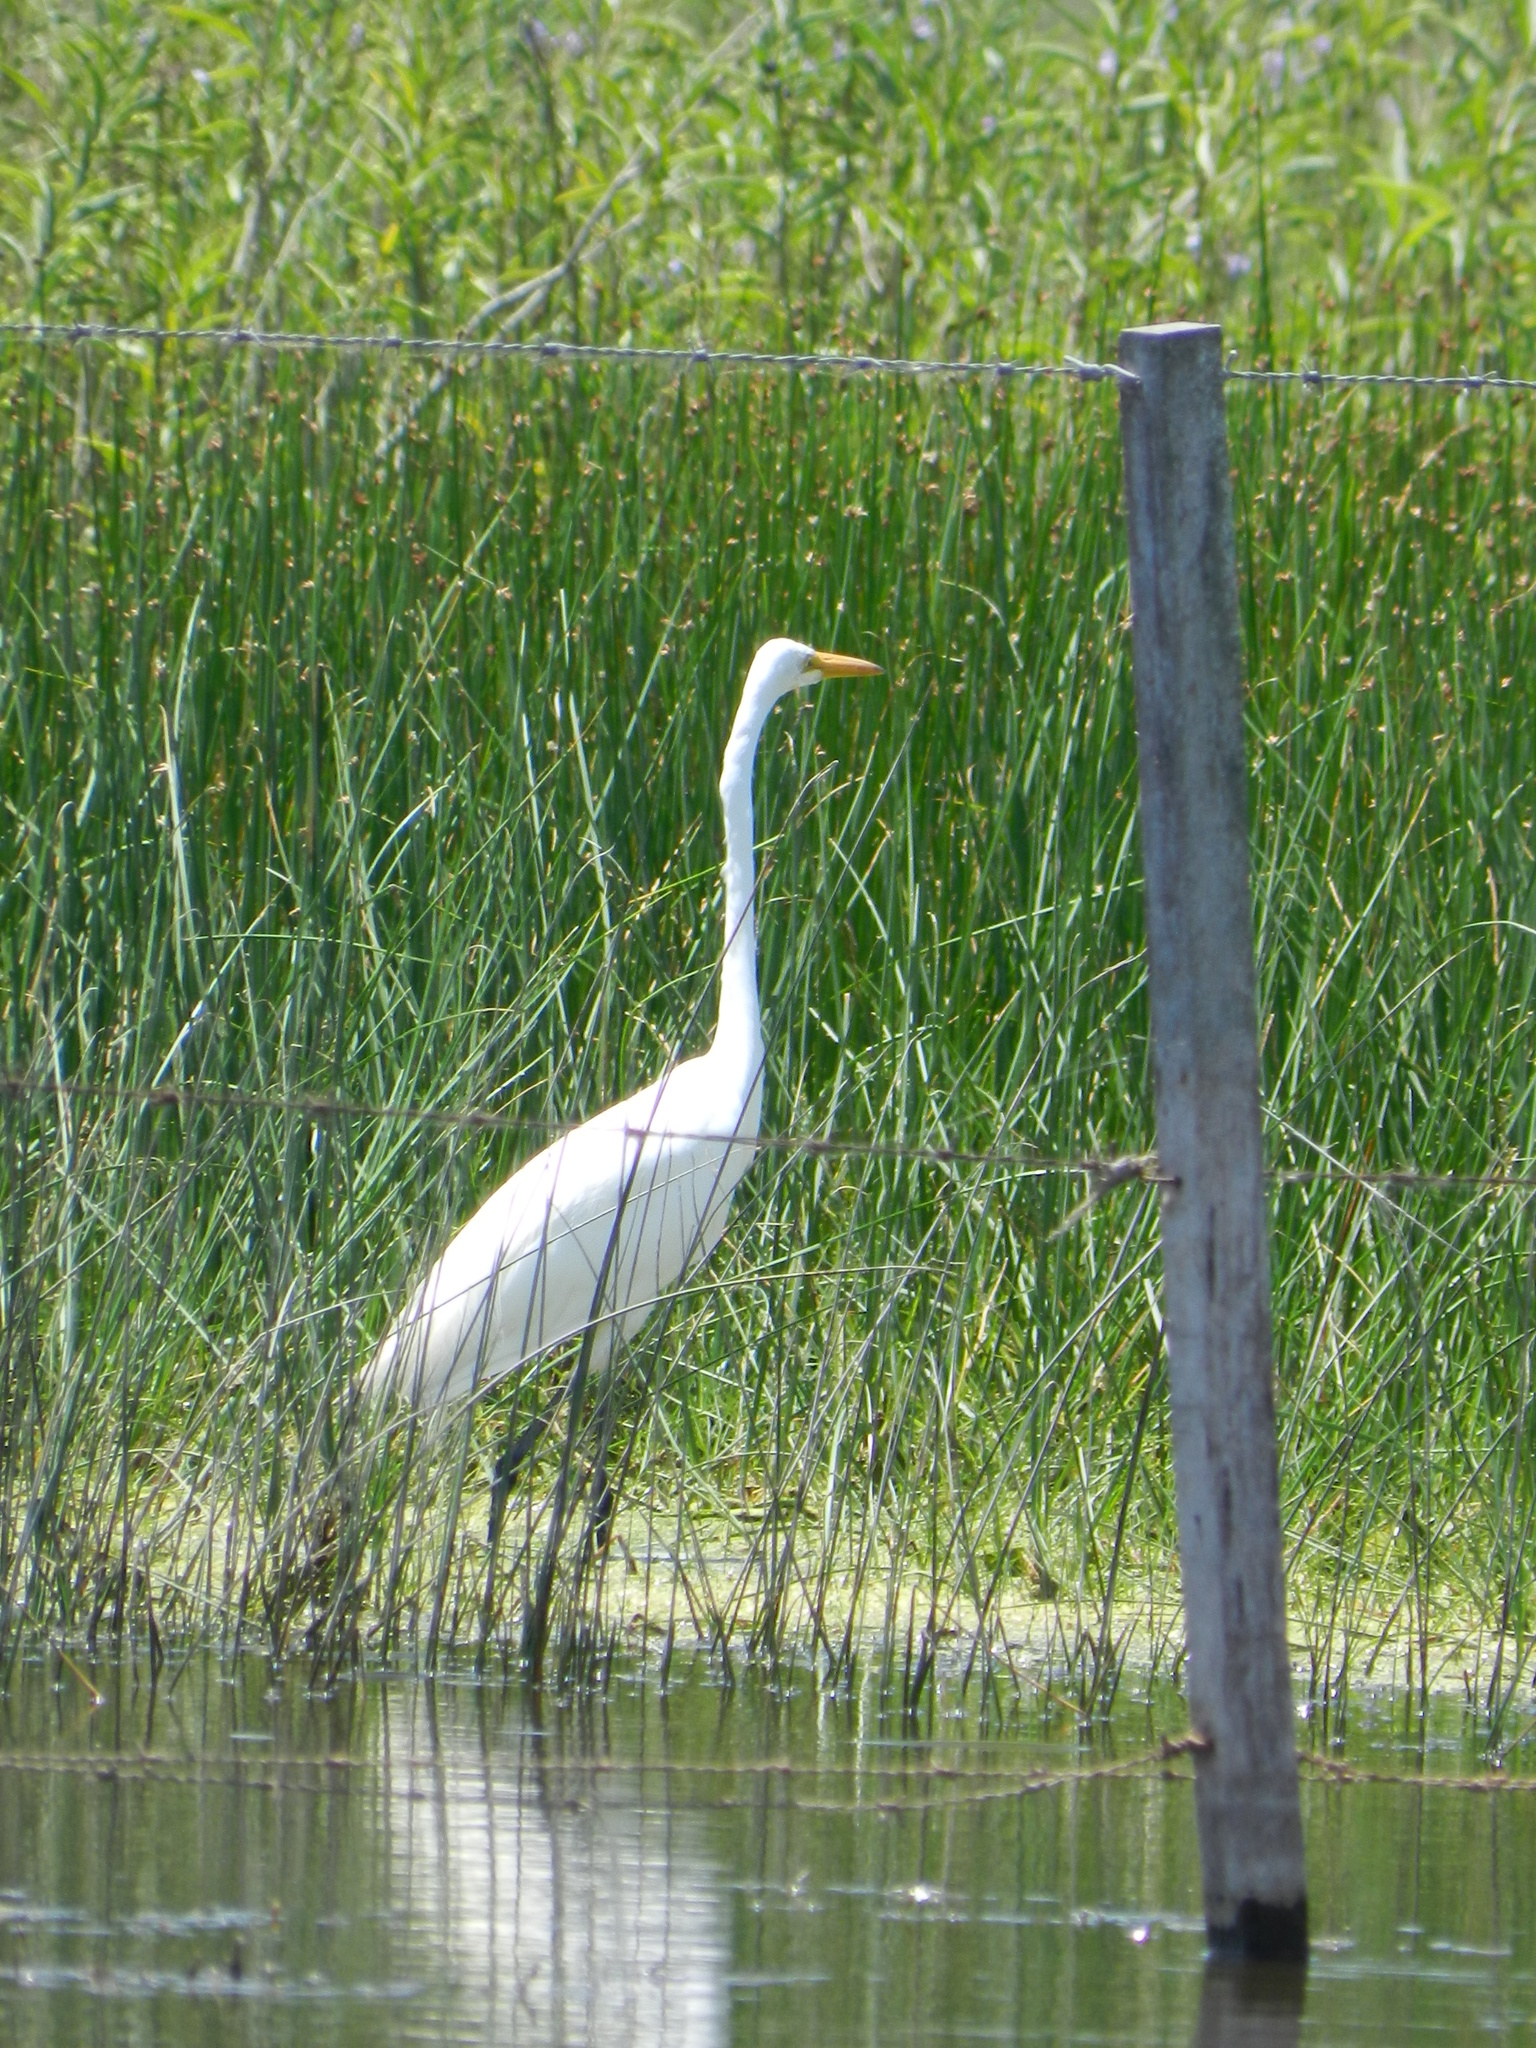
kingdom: Animalia
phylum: Chordata
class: Aves
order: Pelecaniformes
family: Ardeidae
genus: Ardea
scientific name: Ardea alba
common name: Great egret
